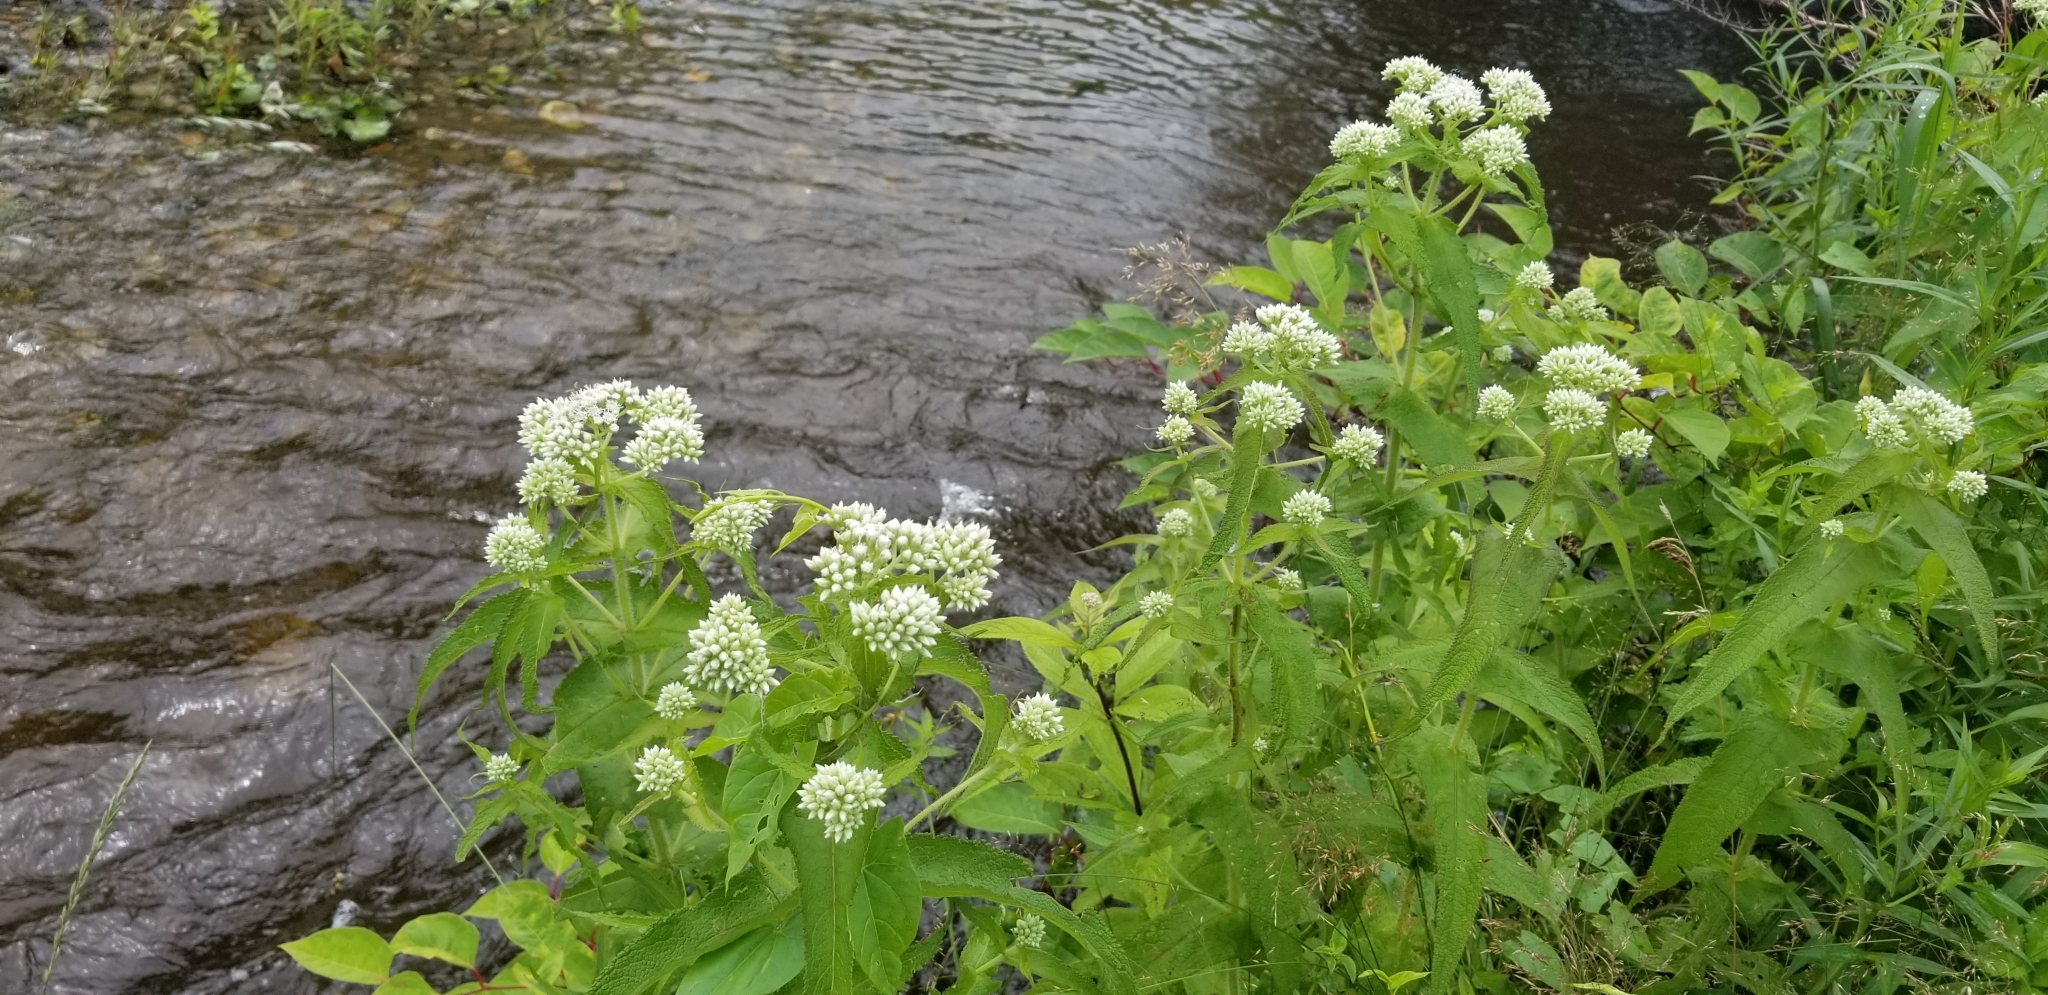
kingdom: Plantae
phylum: Tracheophyta
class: Magnoliopsida
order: Asterales
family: Asteraceae
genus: Eupatorium
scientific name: Eupatorium perfoliatum
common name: Boneset
